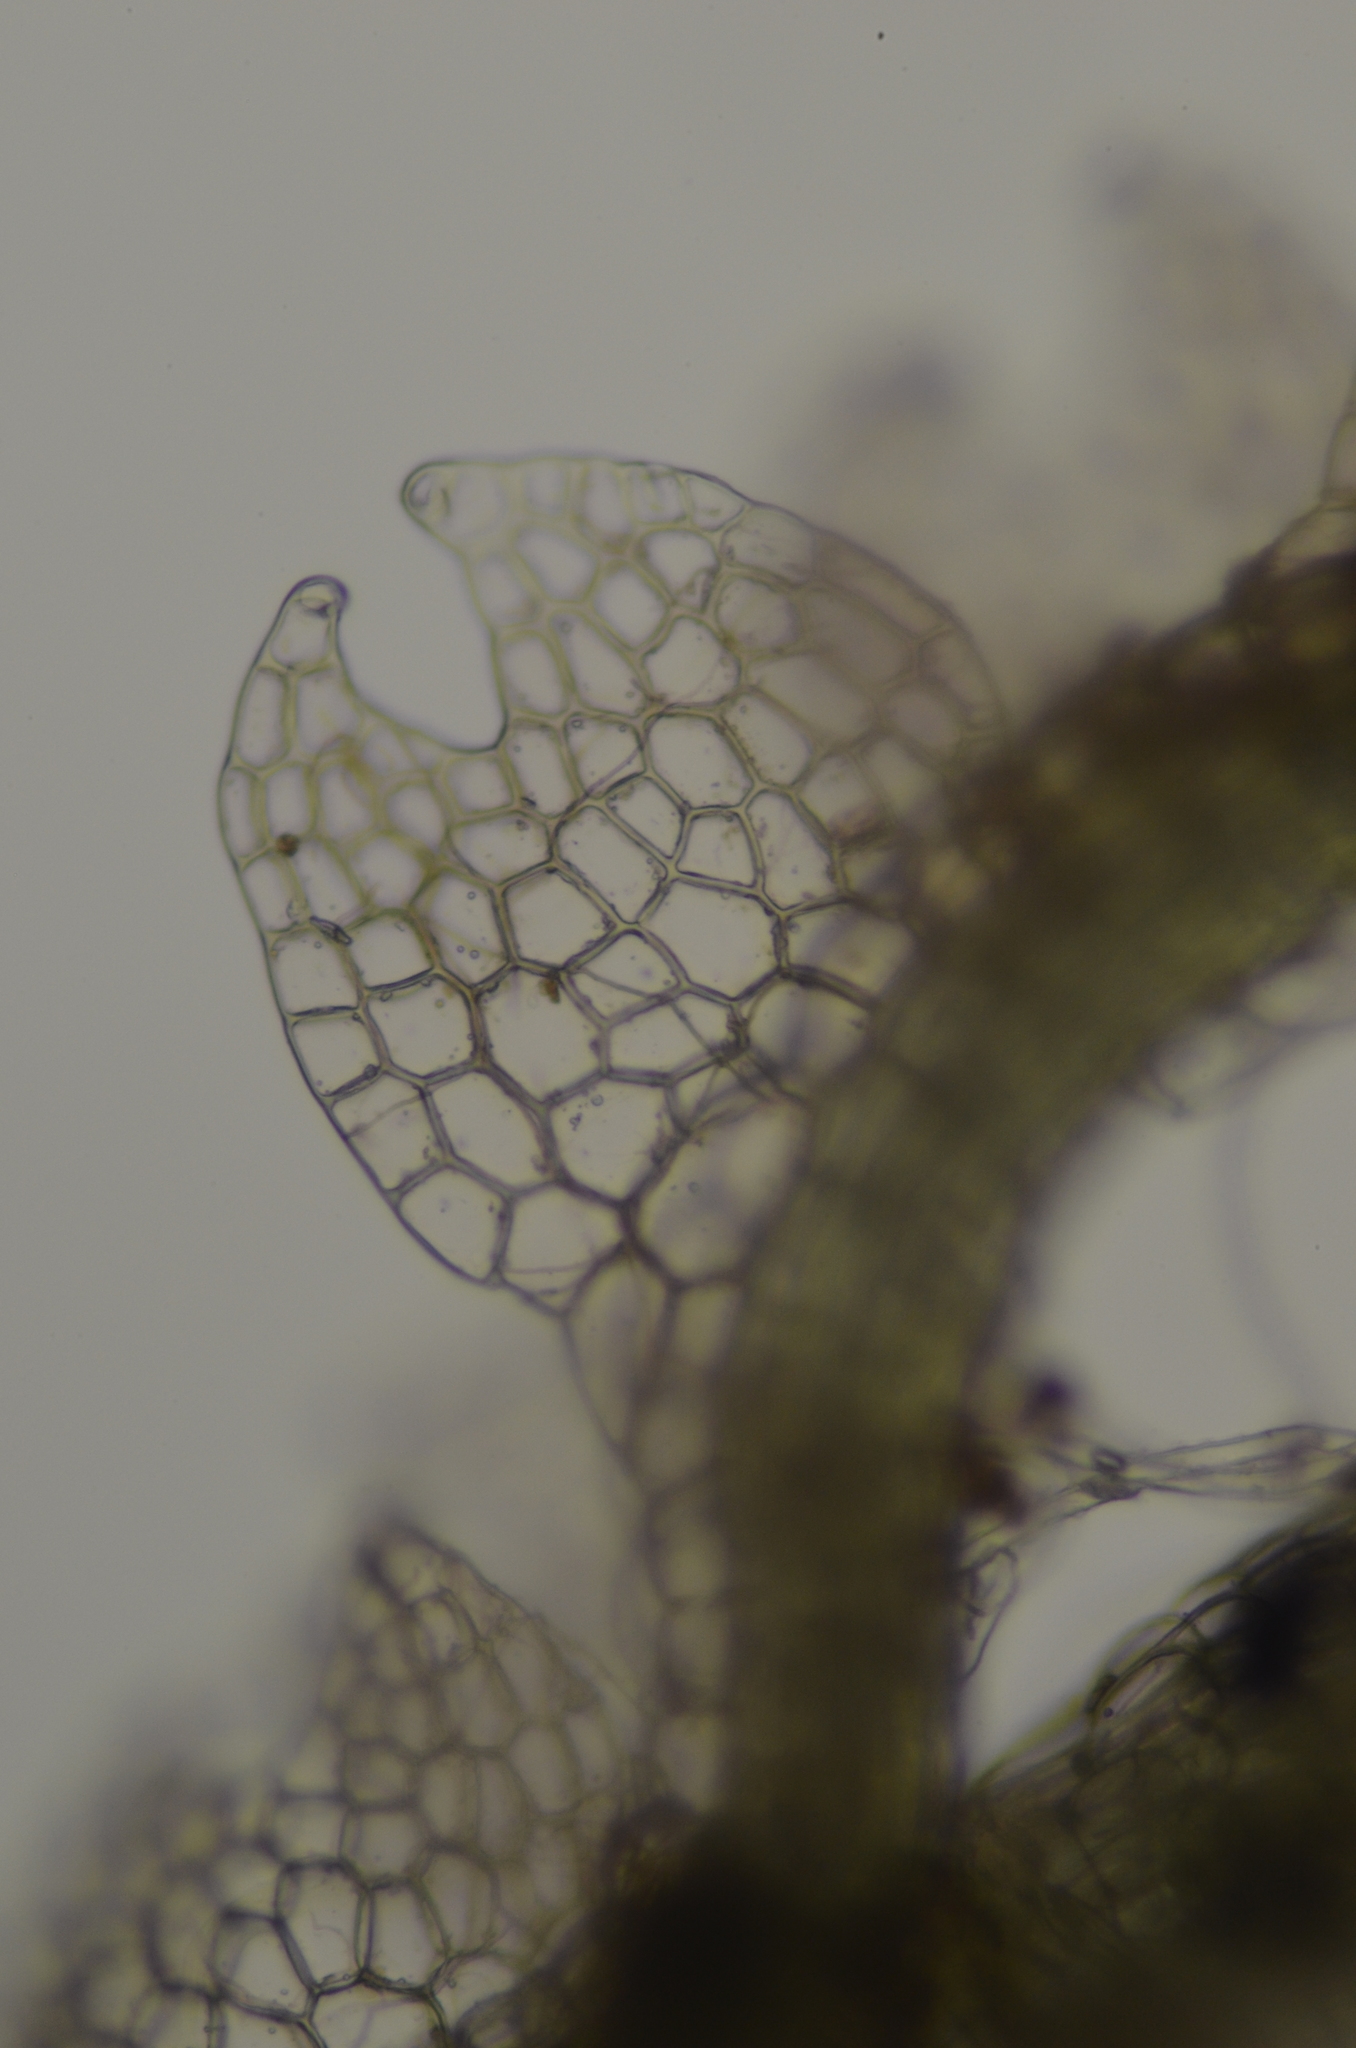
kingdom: Plantae
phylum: Marchantiophyta
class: Jungermanniopsida
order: Jungermanniales
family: Cephaloziaceae
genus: Fuscocephaloziopsis
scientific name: Fuscocephaloziopsis lunulifolia
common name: Moon-leaved pincerwort
